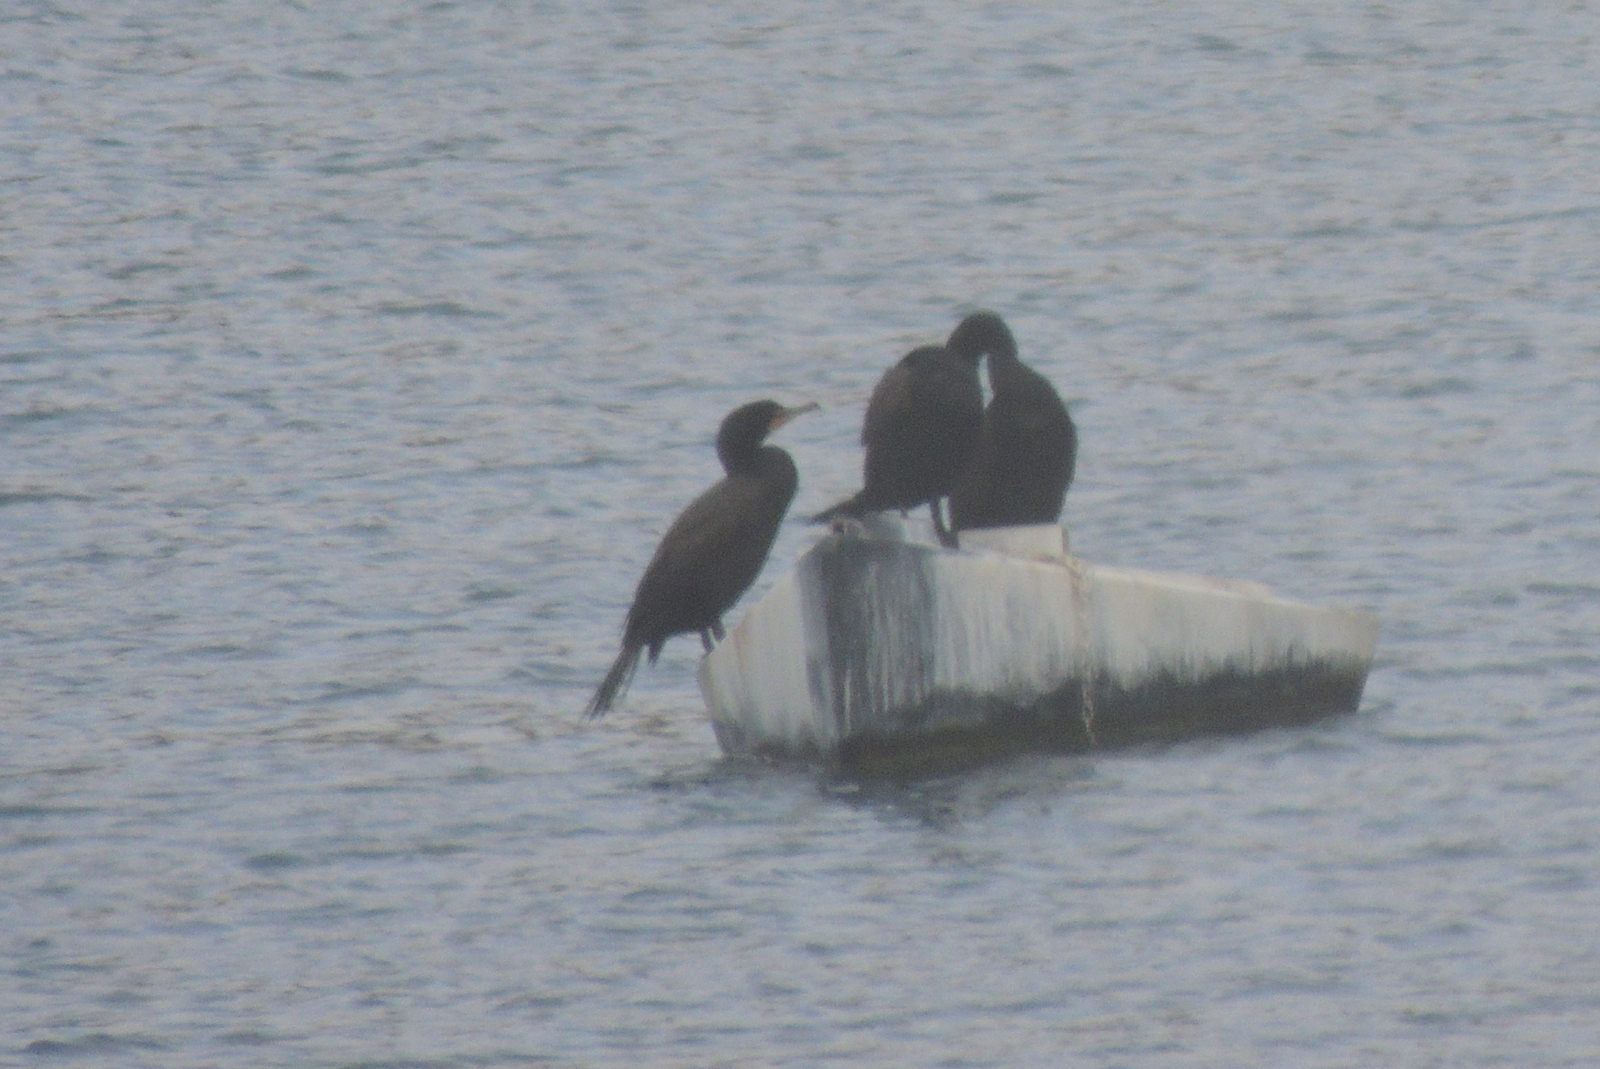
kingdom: Animalia
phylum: Chordata
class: Aves
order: Suliformes
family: Phalacrocoracidae
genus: Phalacrocorax
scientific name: Phalacrocorax auritus
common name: Double-crested cormorant
